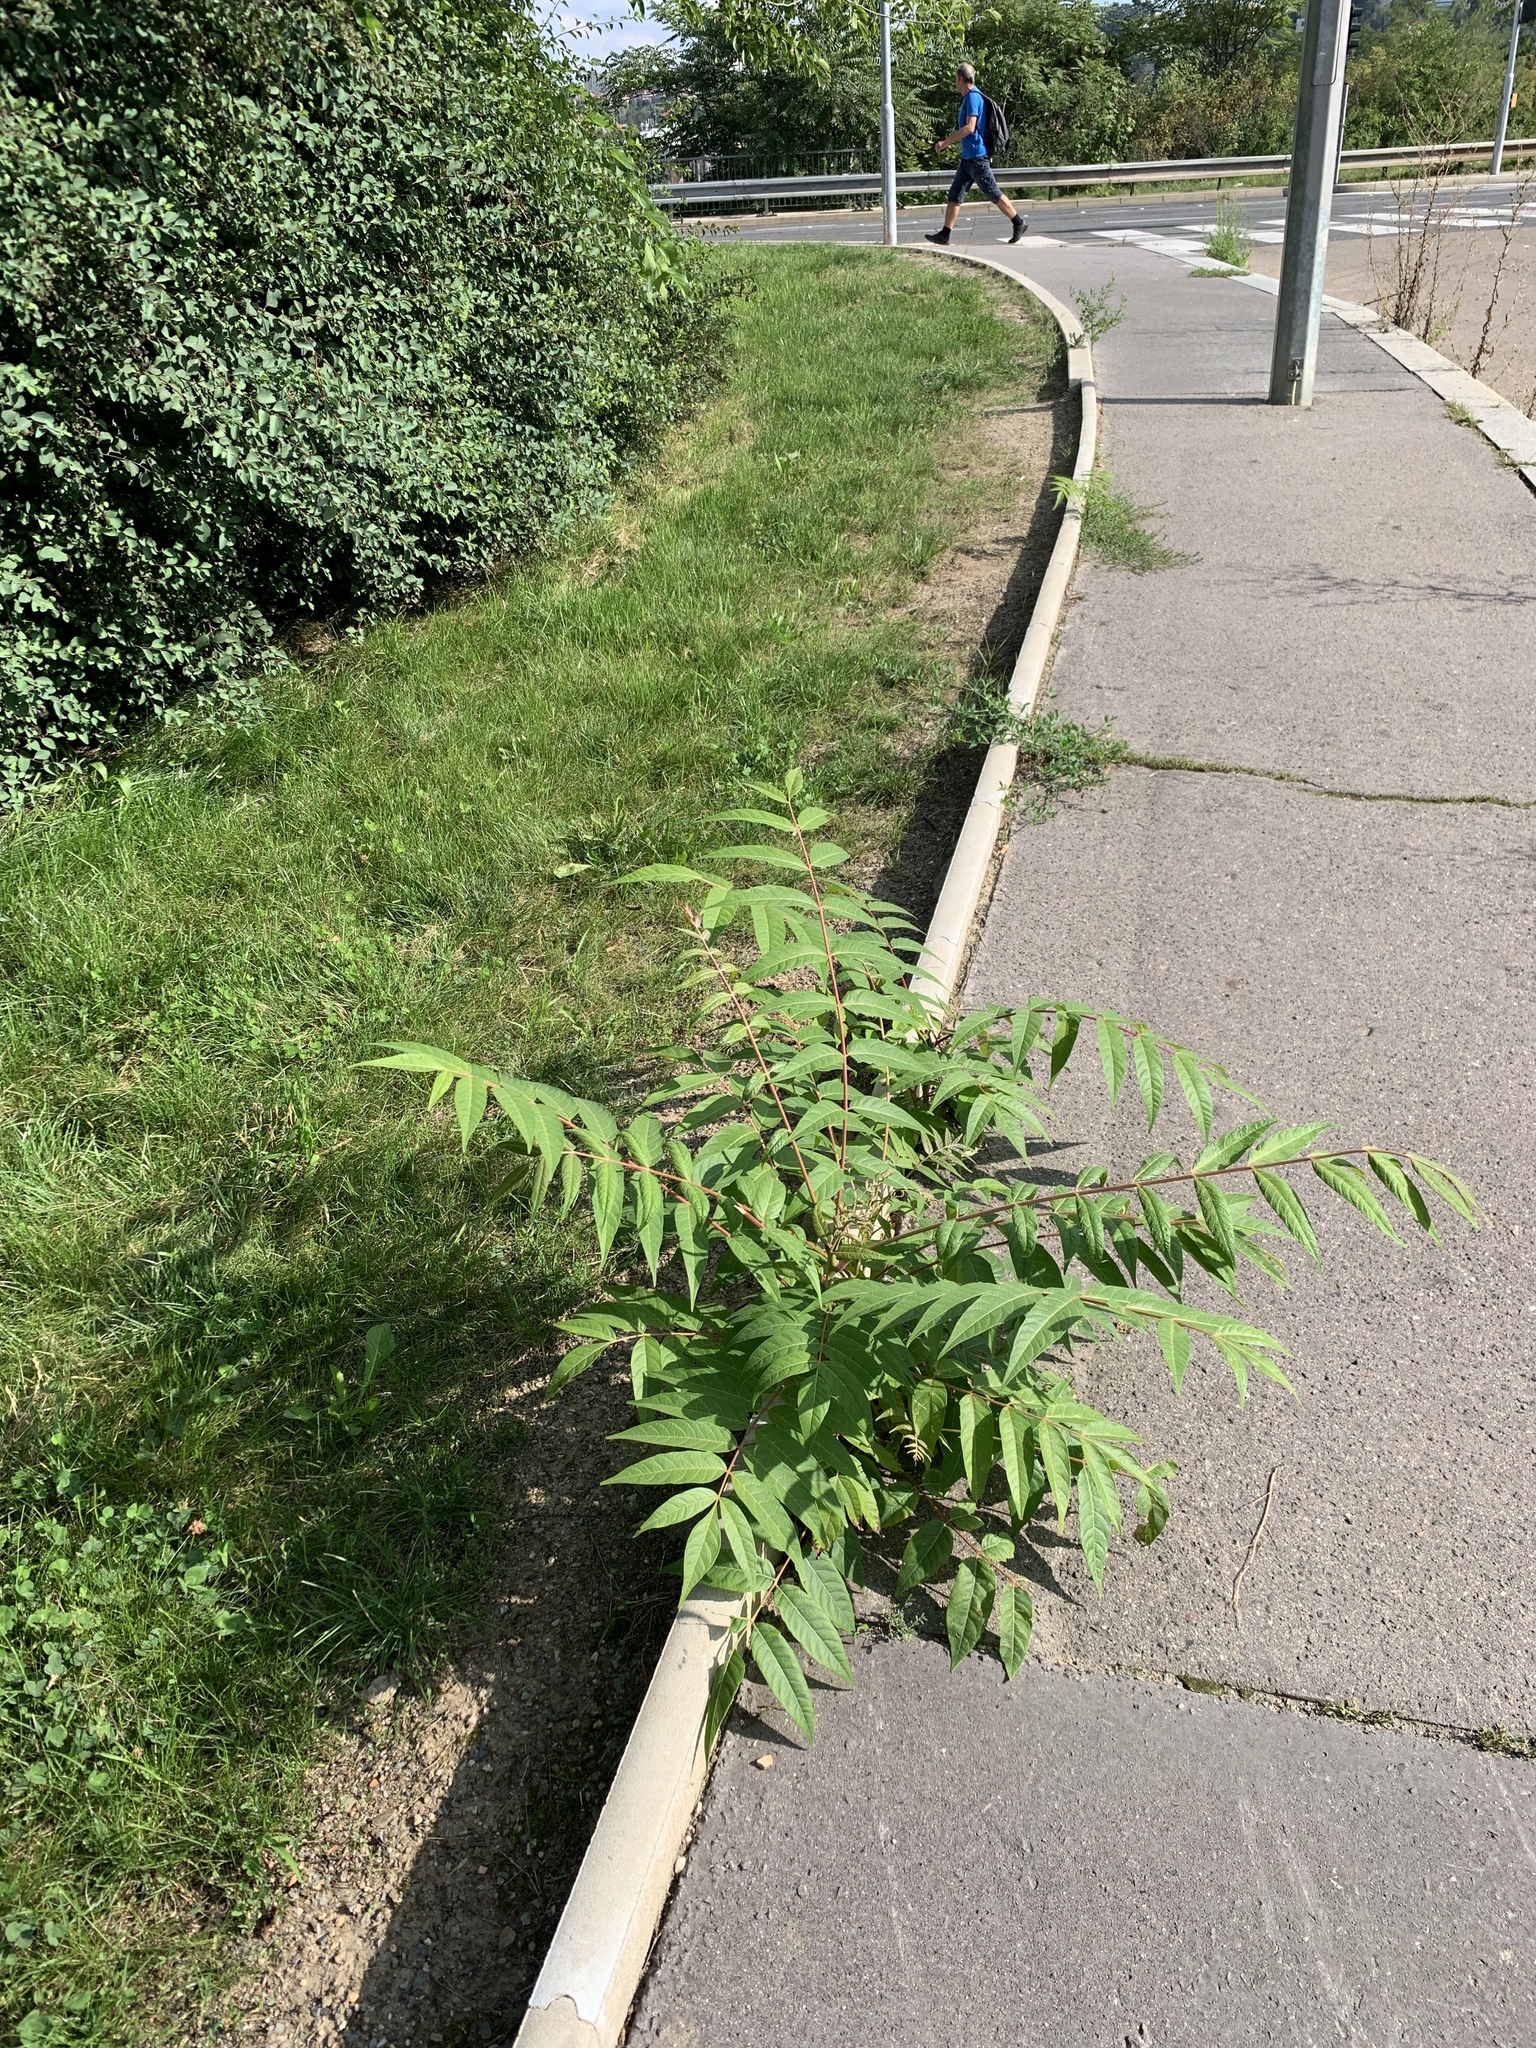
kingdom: Plantae
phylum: Tracheophyta
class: Magnoliopsida
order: Sapindales
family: Simaroubaceae
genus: Ailanthus
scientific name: Ailanthus altissima
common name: Tree-of-heaven
